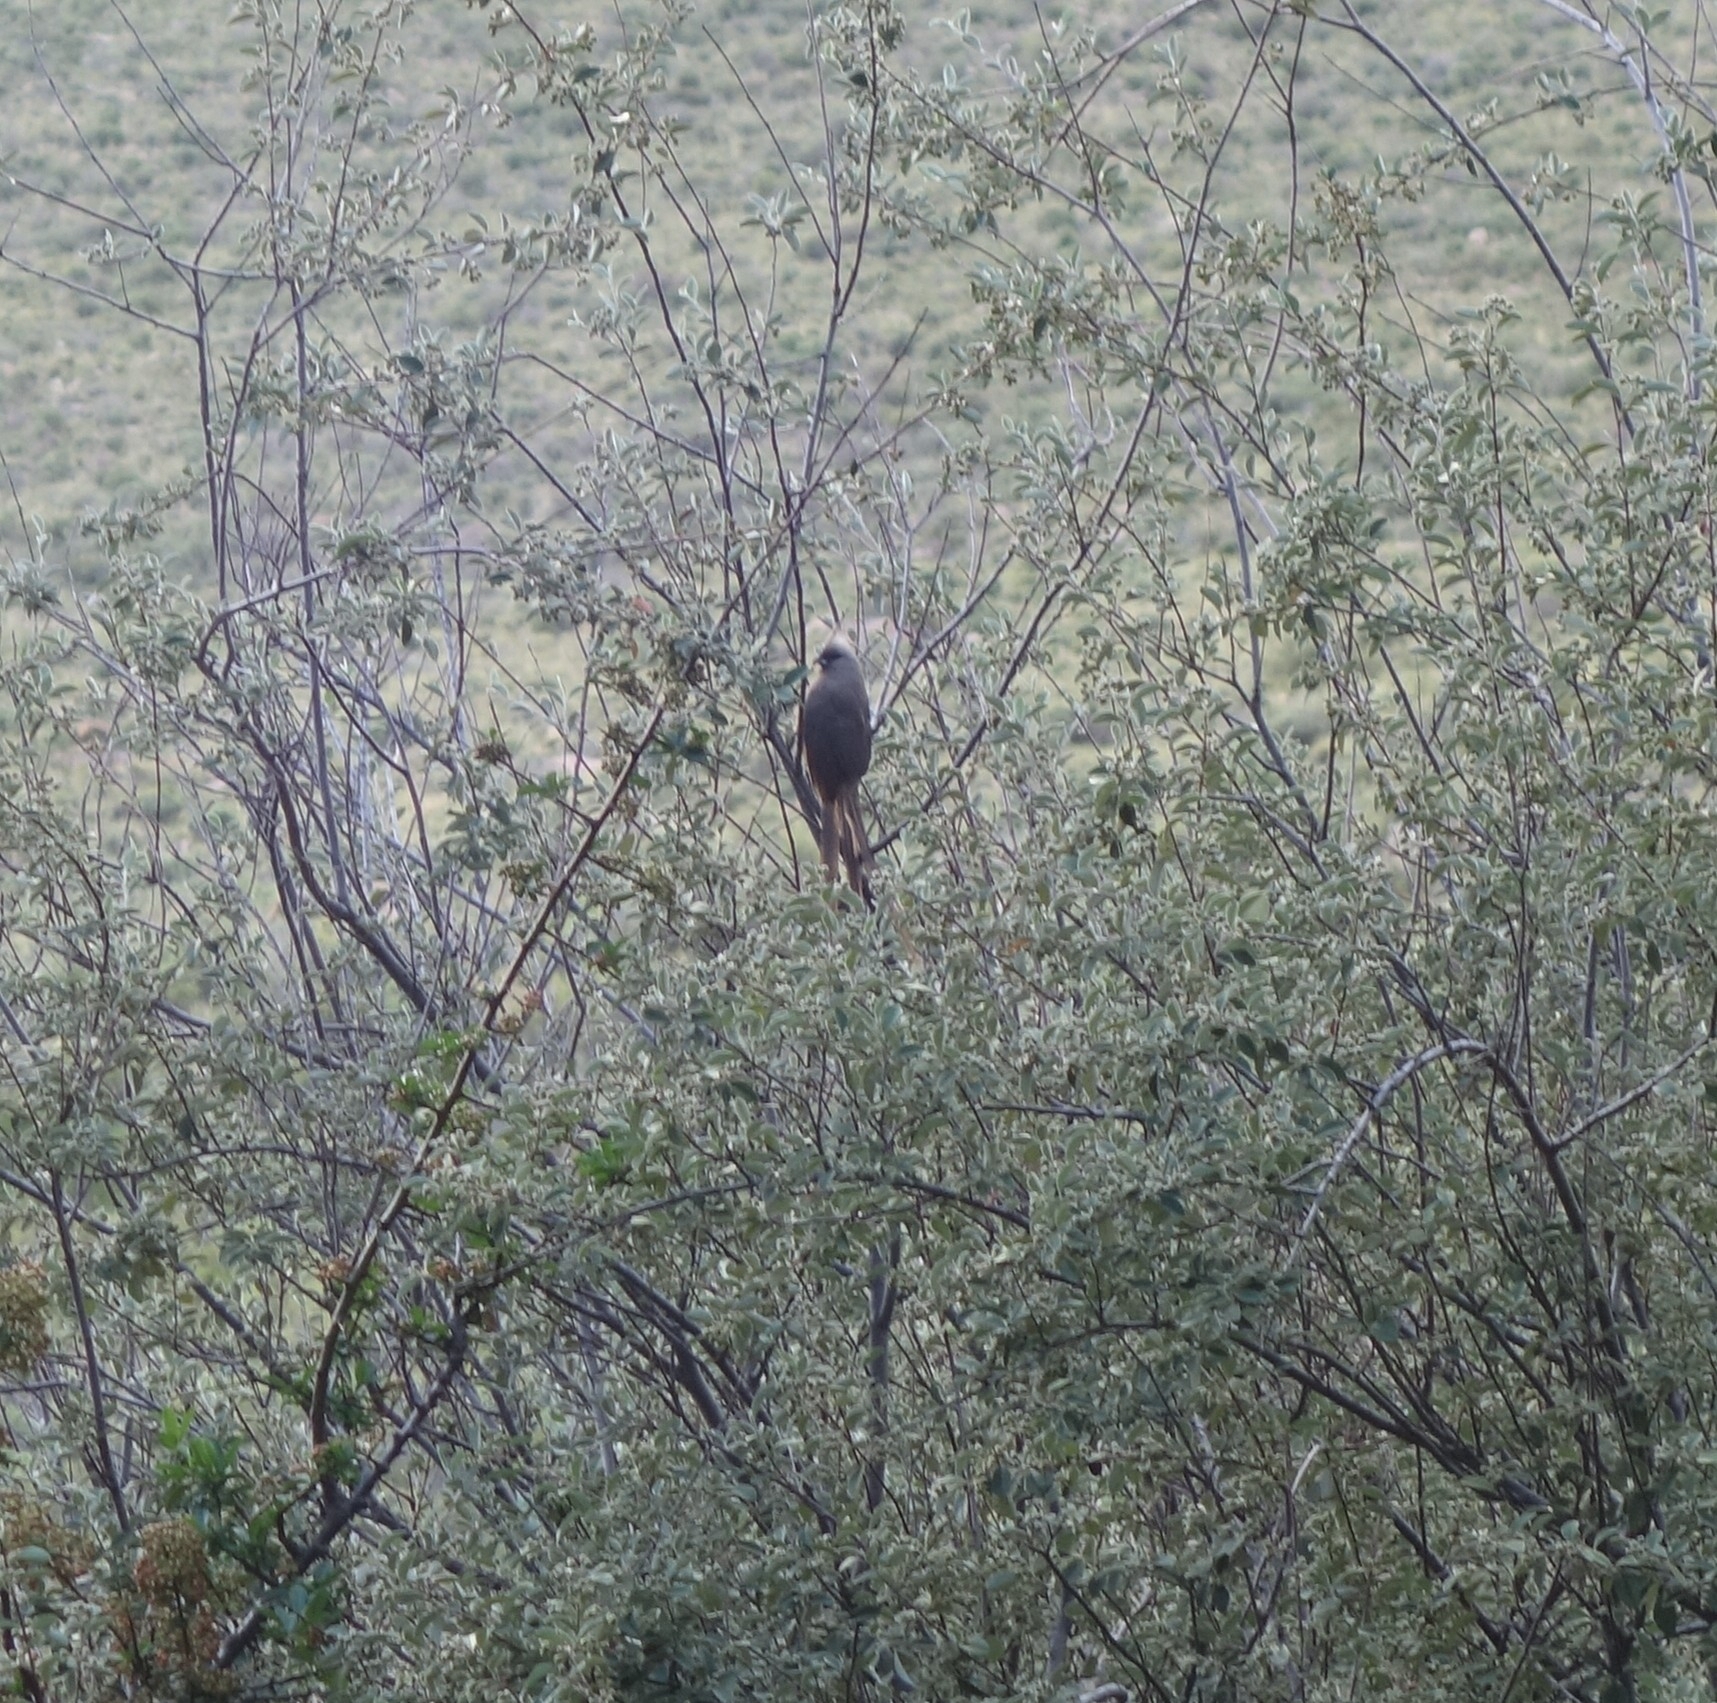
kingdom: Animalia
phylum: Chordata
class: Aves
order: Coliiformes
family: Coliidae
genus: Colius
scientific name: Colius striatus
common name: Speckled mousebird
